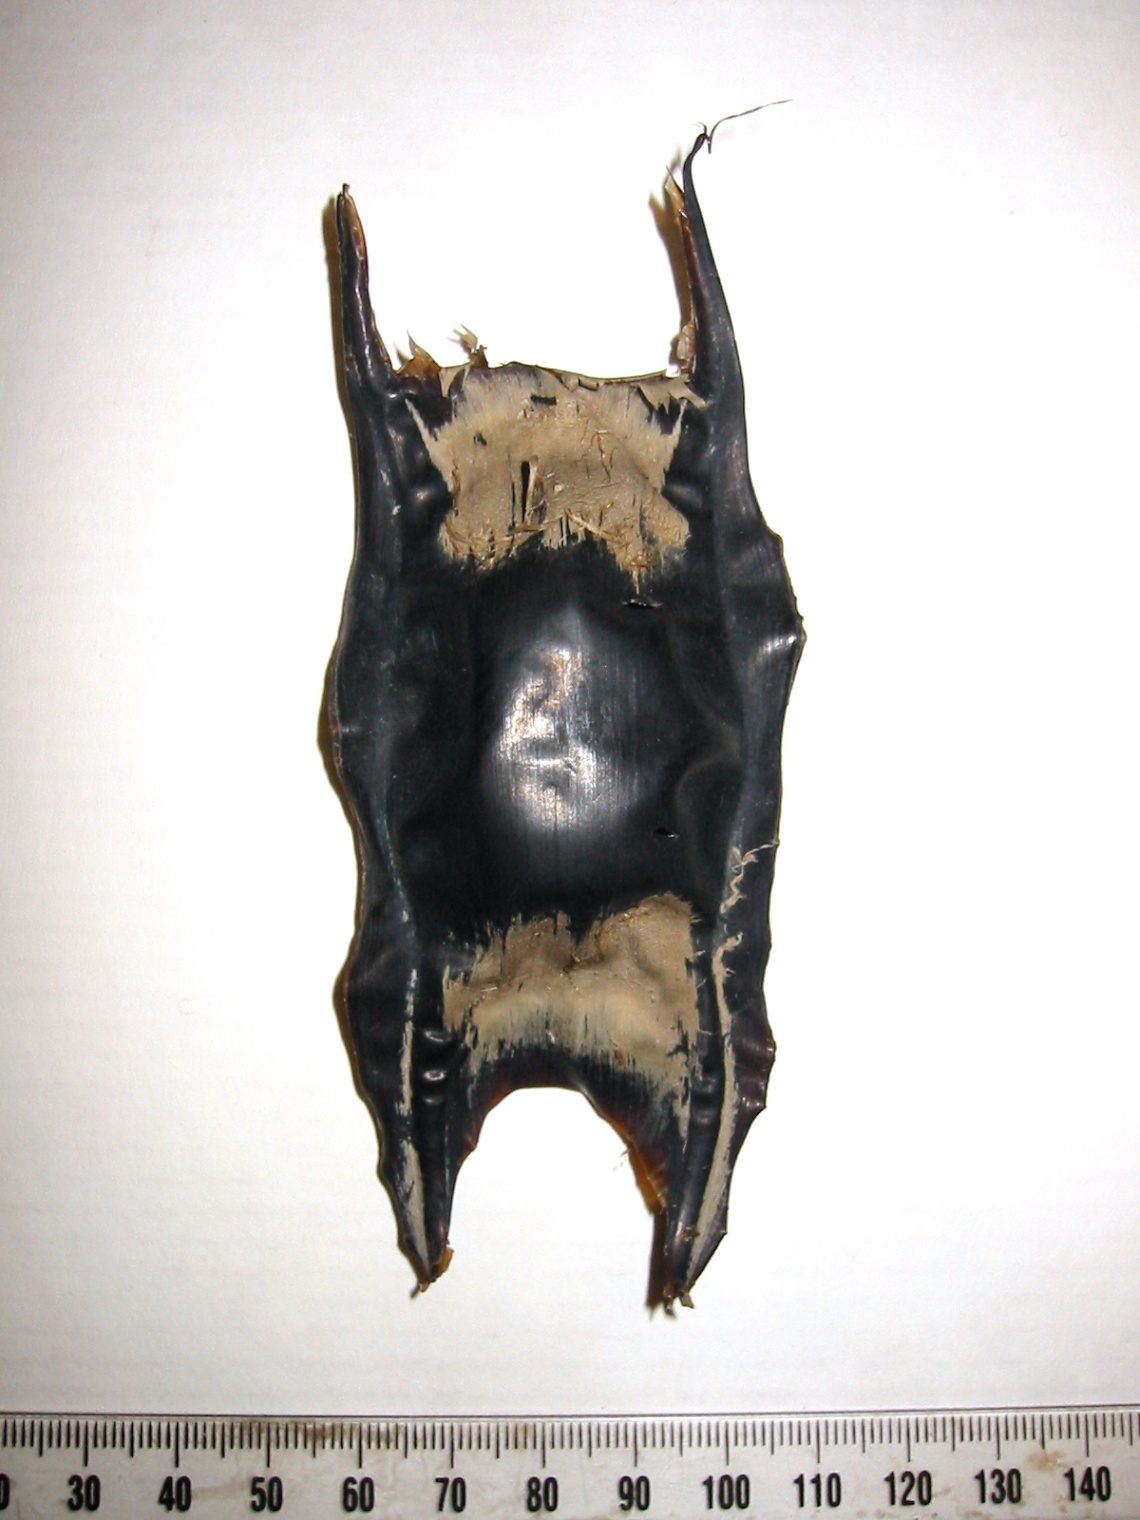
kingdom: Animalia
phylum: Chordata
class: Elasmobranchii
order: Rajiformes
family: Rajidae
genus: Zearaja
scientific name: Zearaja nasuta
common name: New zealand rough skate
